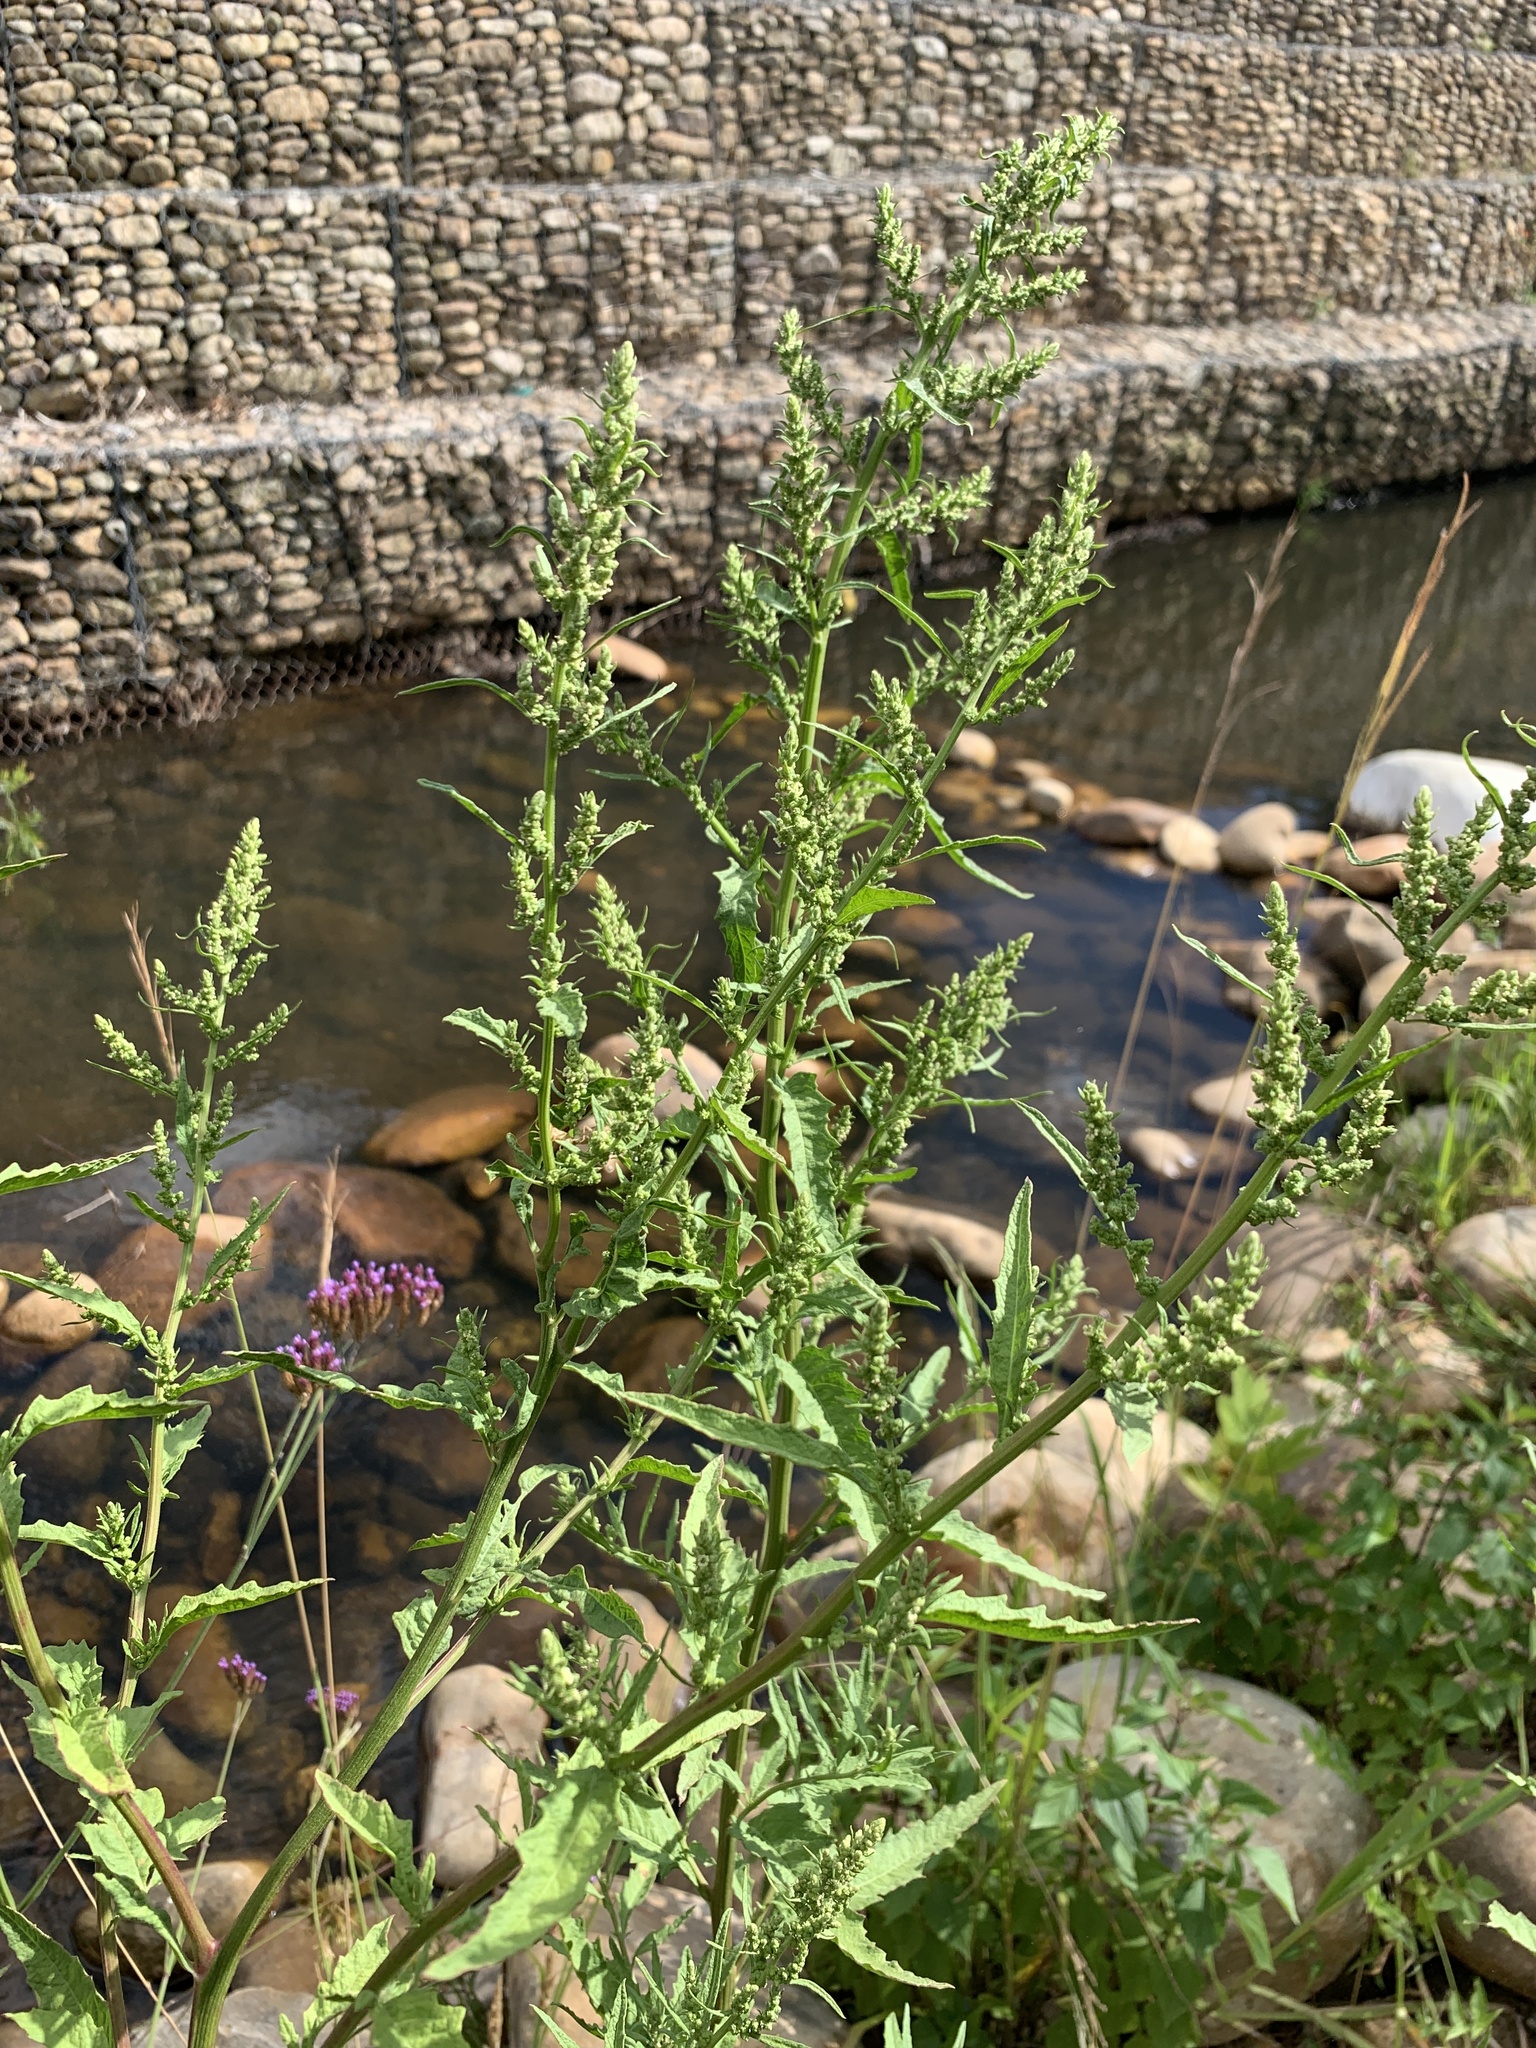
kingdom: Plantae
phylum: Tracheophyta
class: Magnoliopsida
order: Caryophyllales
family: Amaranthaceae
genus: Dysphania
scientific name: Dysphania ambrosioides
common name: Wormseed
